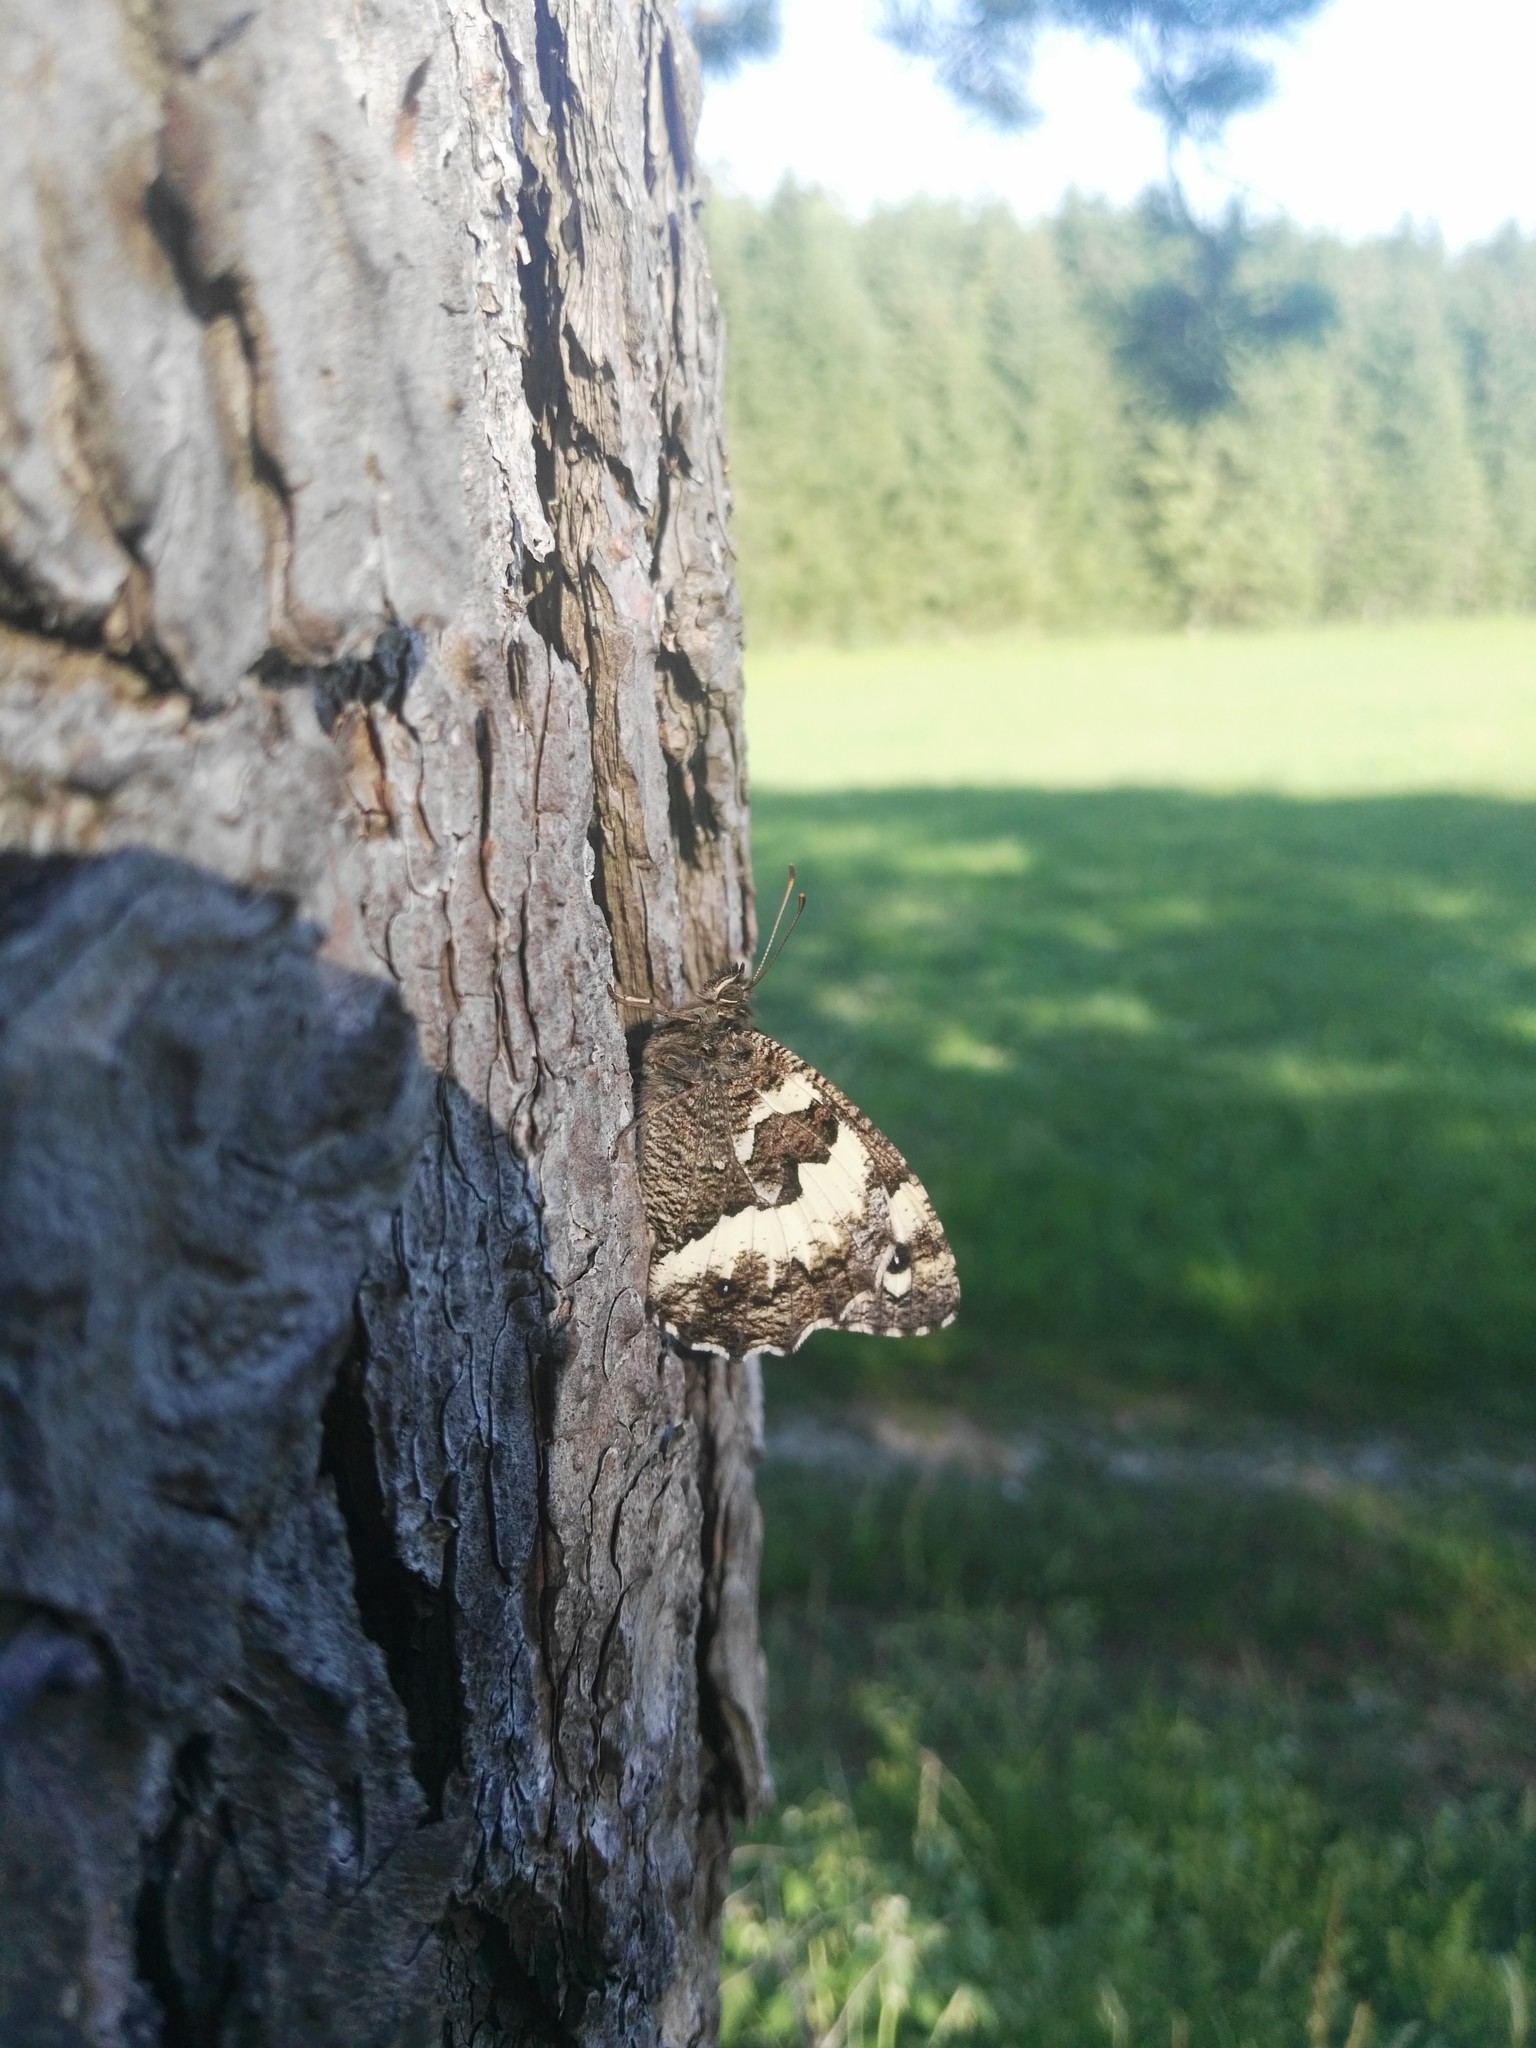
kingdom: Animalia
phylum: Arthropoda
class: Insecta
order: Lepidoptera
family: Lycaenidae
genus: Loweia
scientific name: Loweia tityrus
